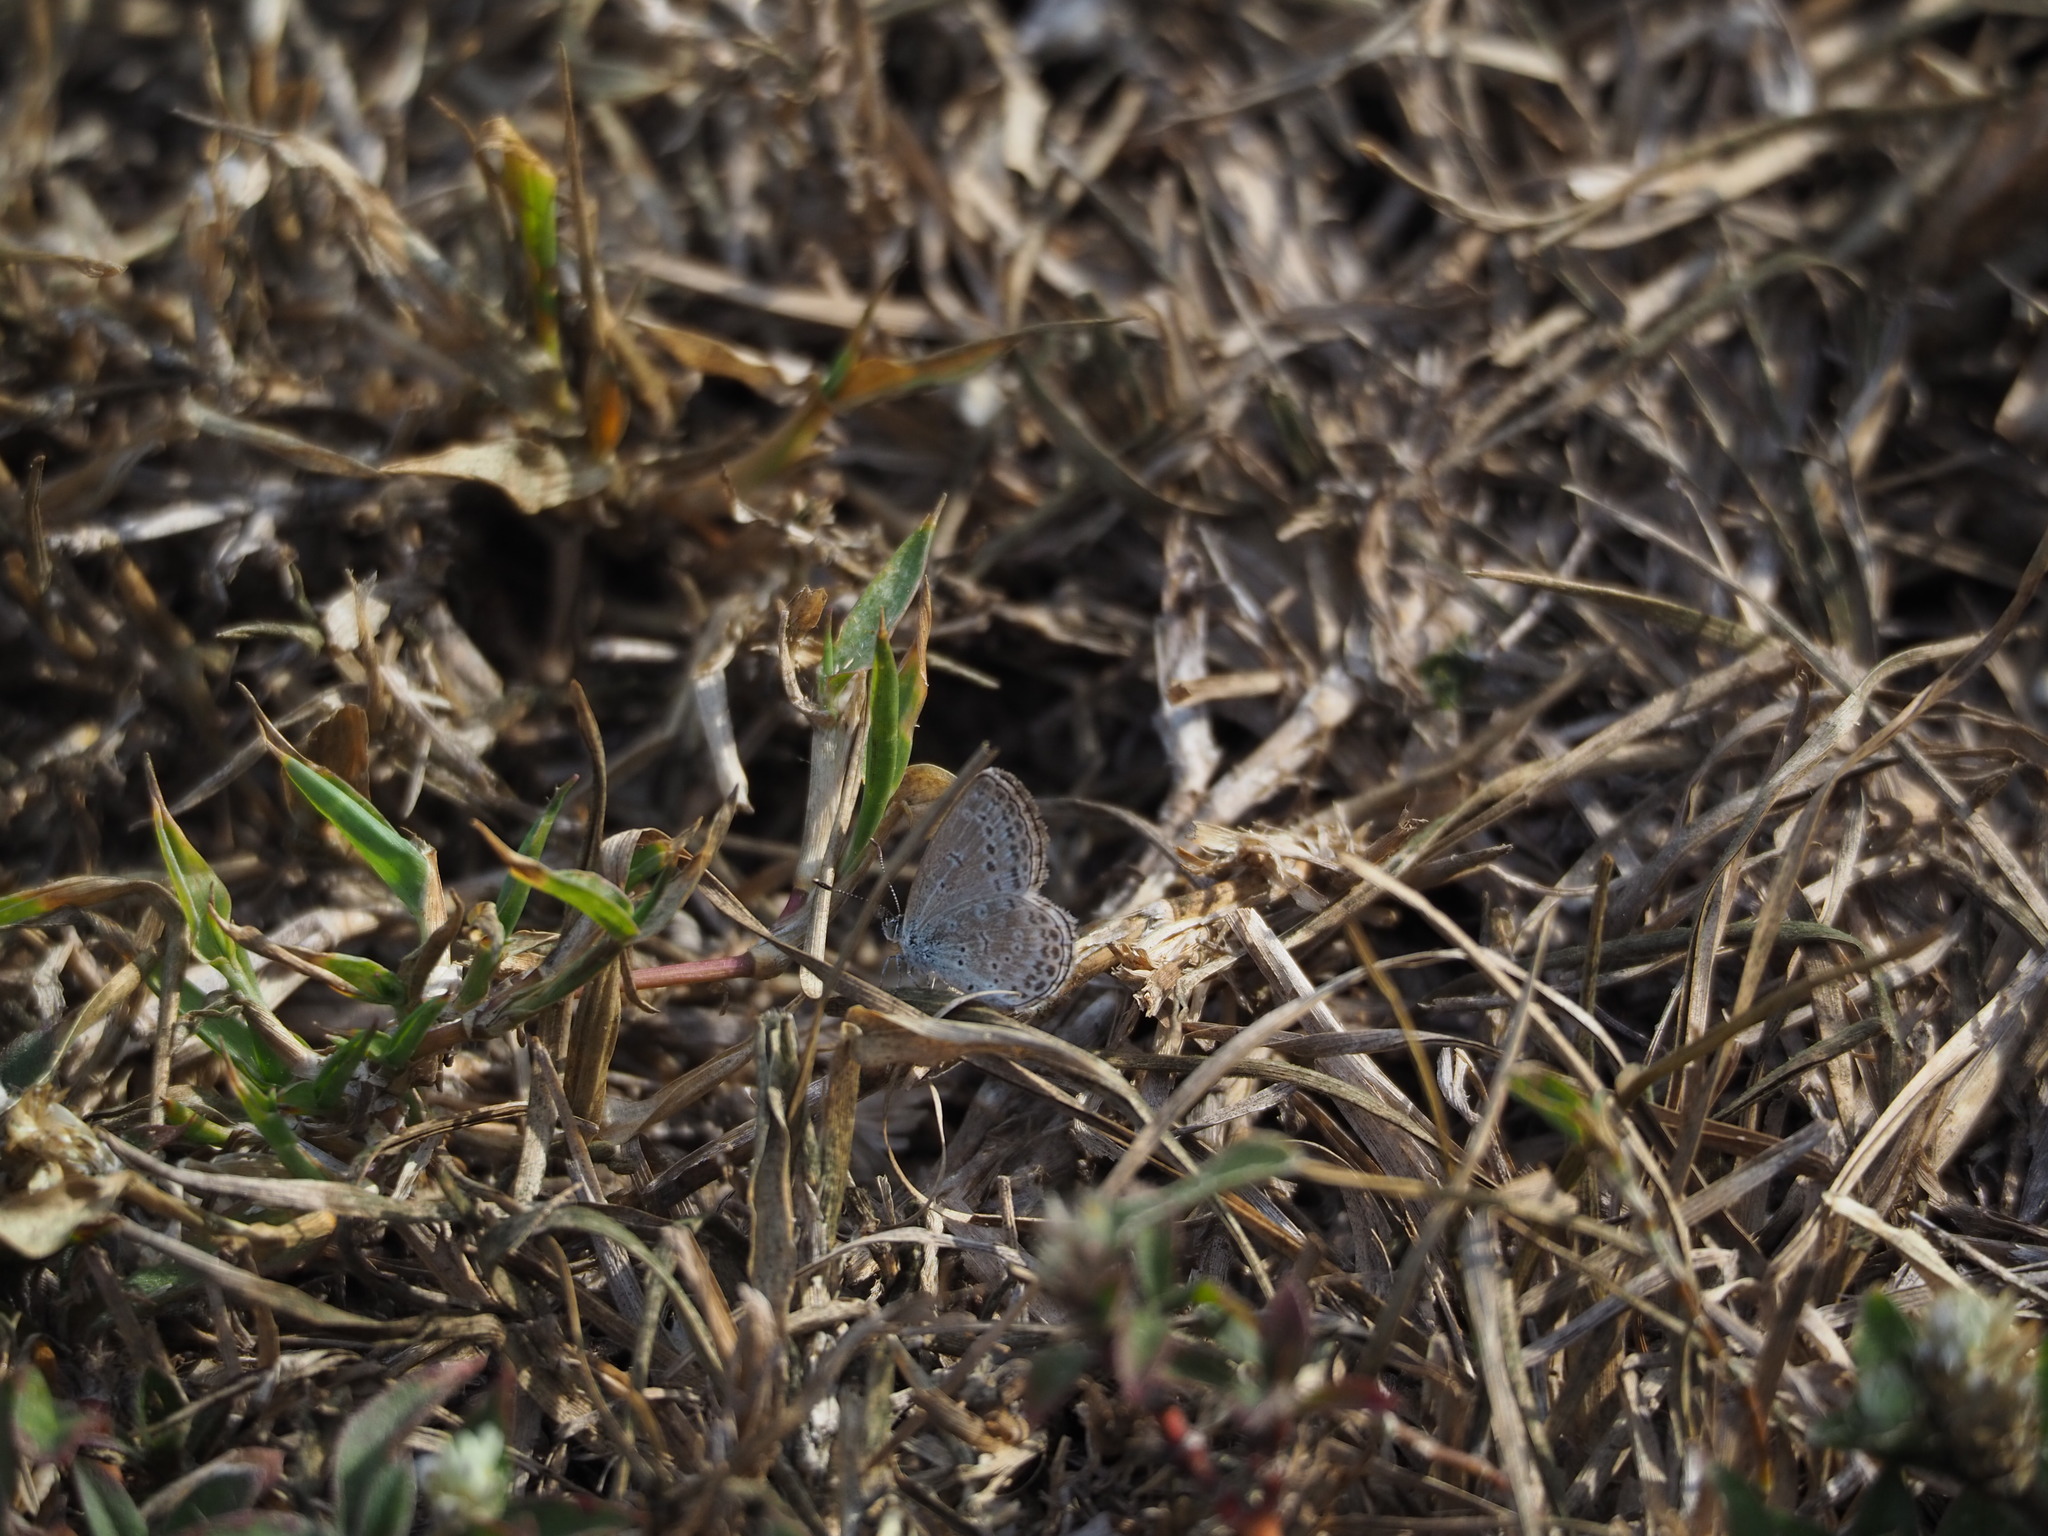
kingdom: Animalia
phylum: Arthropoda
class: Insecta
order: Lepidoptera
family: Lycaenidae
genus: Pseudozizeeria
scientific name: Pseudozizeeria maha
